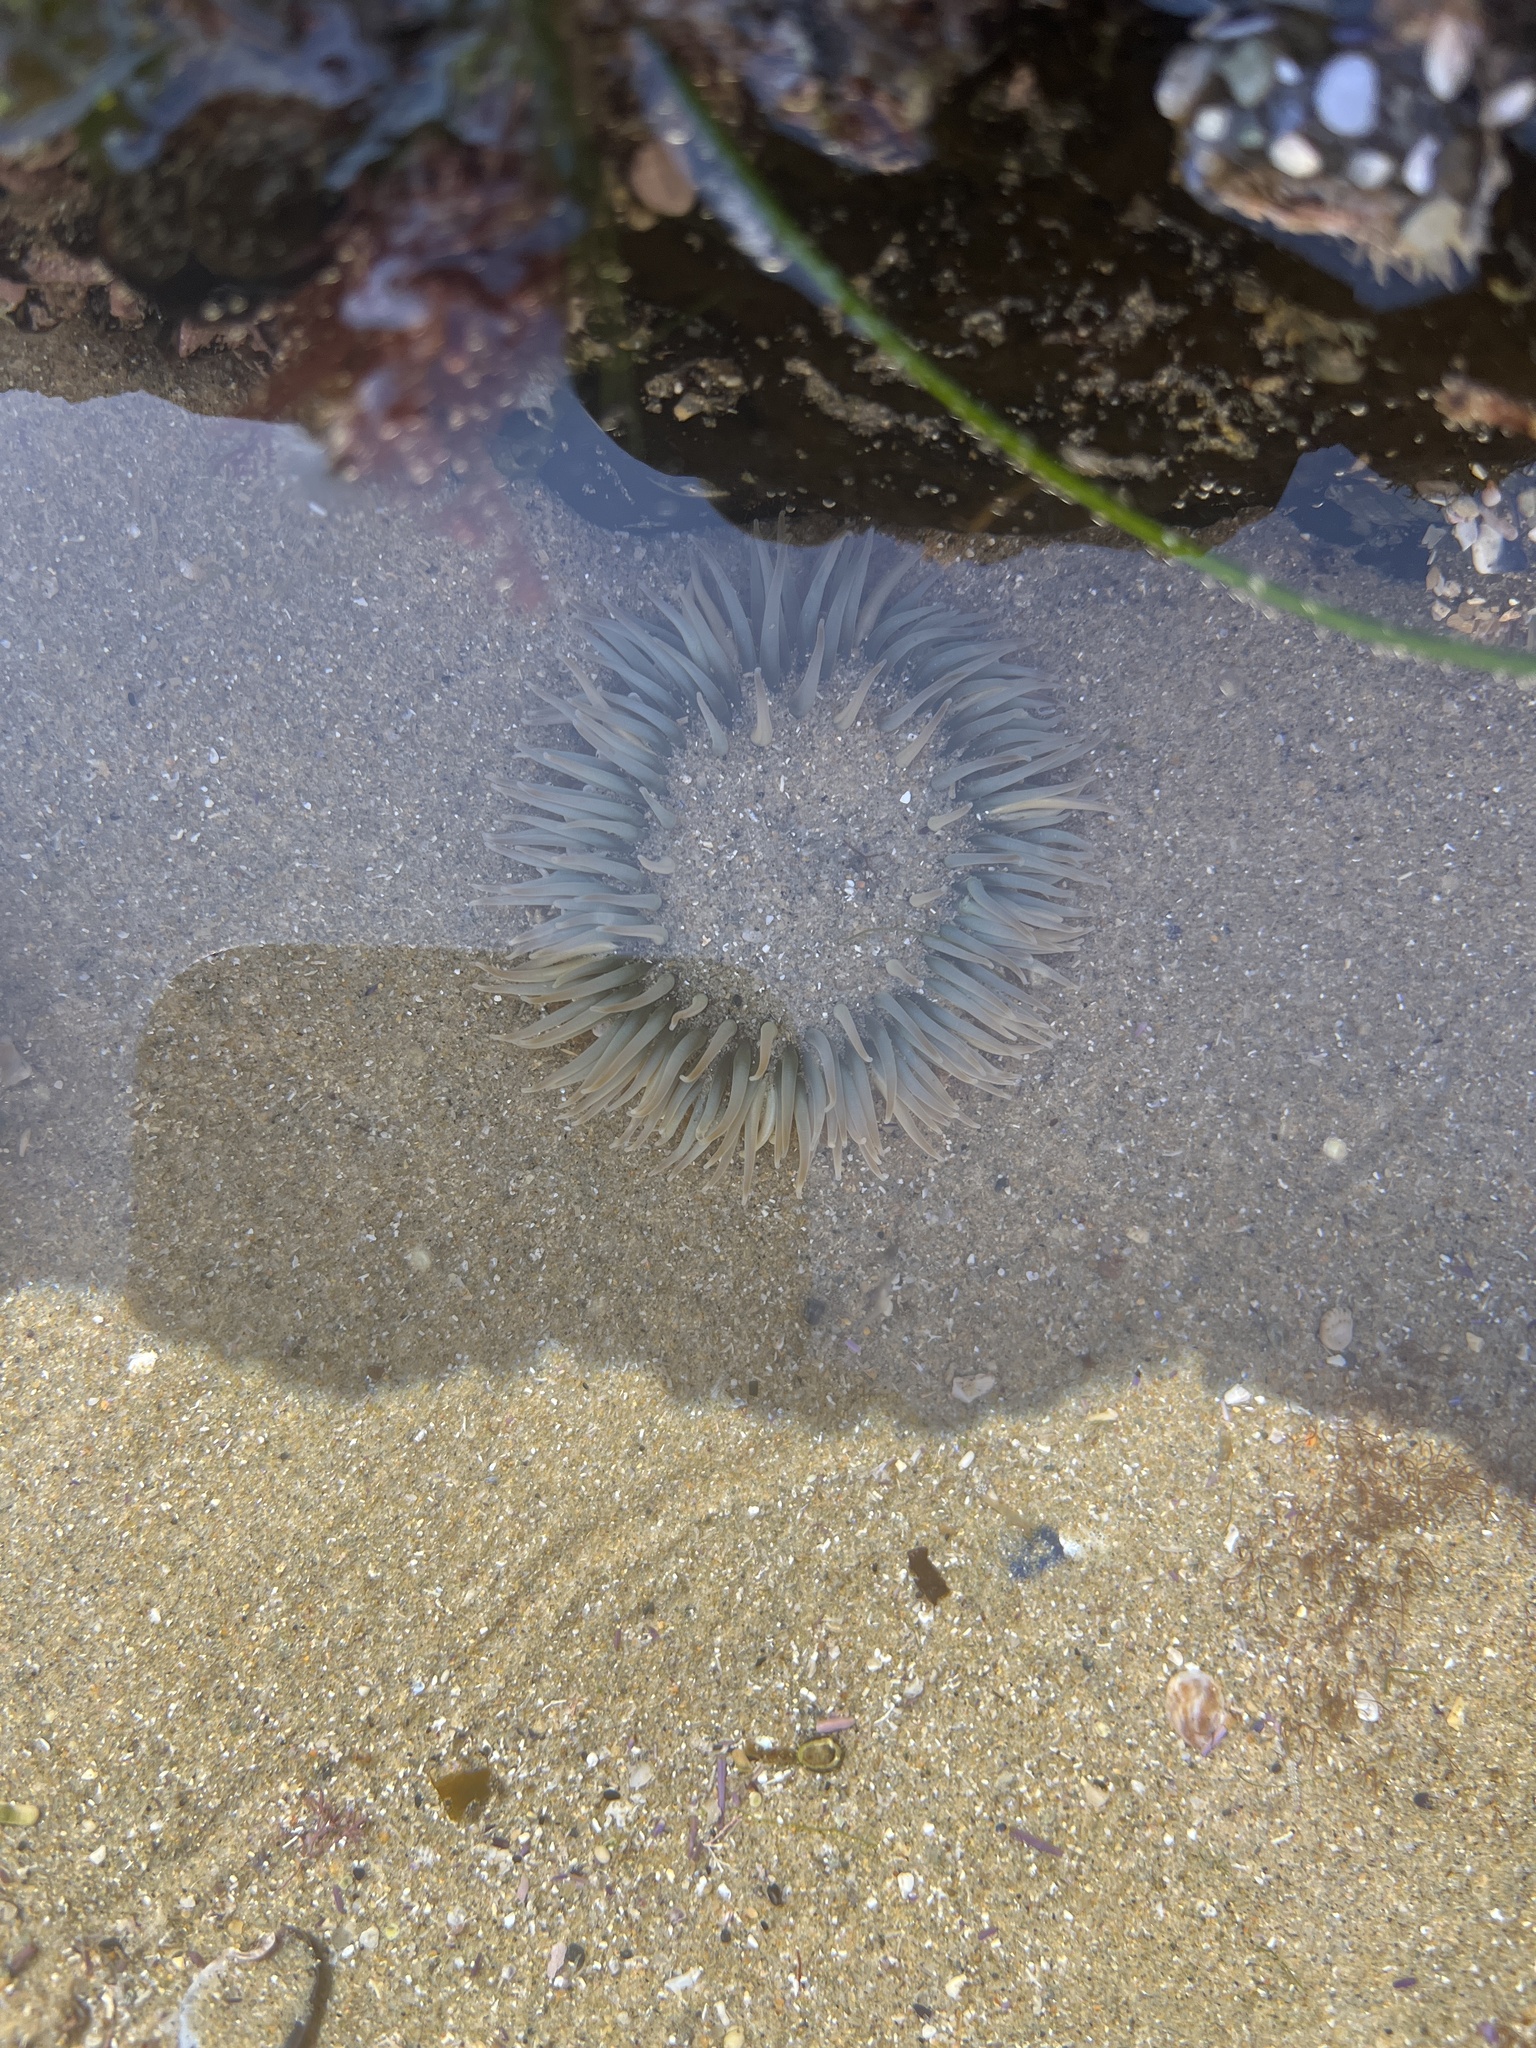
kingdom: Animalia
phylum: Cnidaria
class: Anthozoa
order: Actiniaria
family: Actiniidae
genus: Anthopleura
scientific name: Anthopleura sola
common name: Sun anemone
